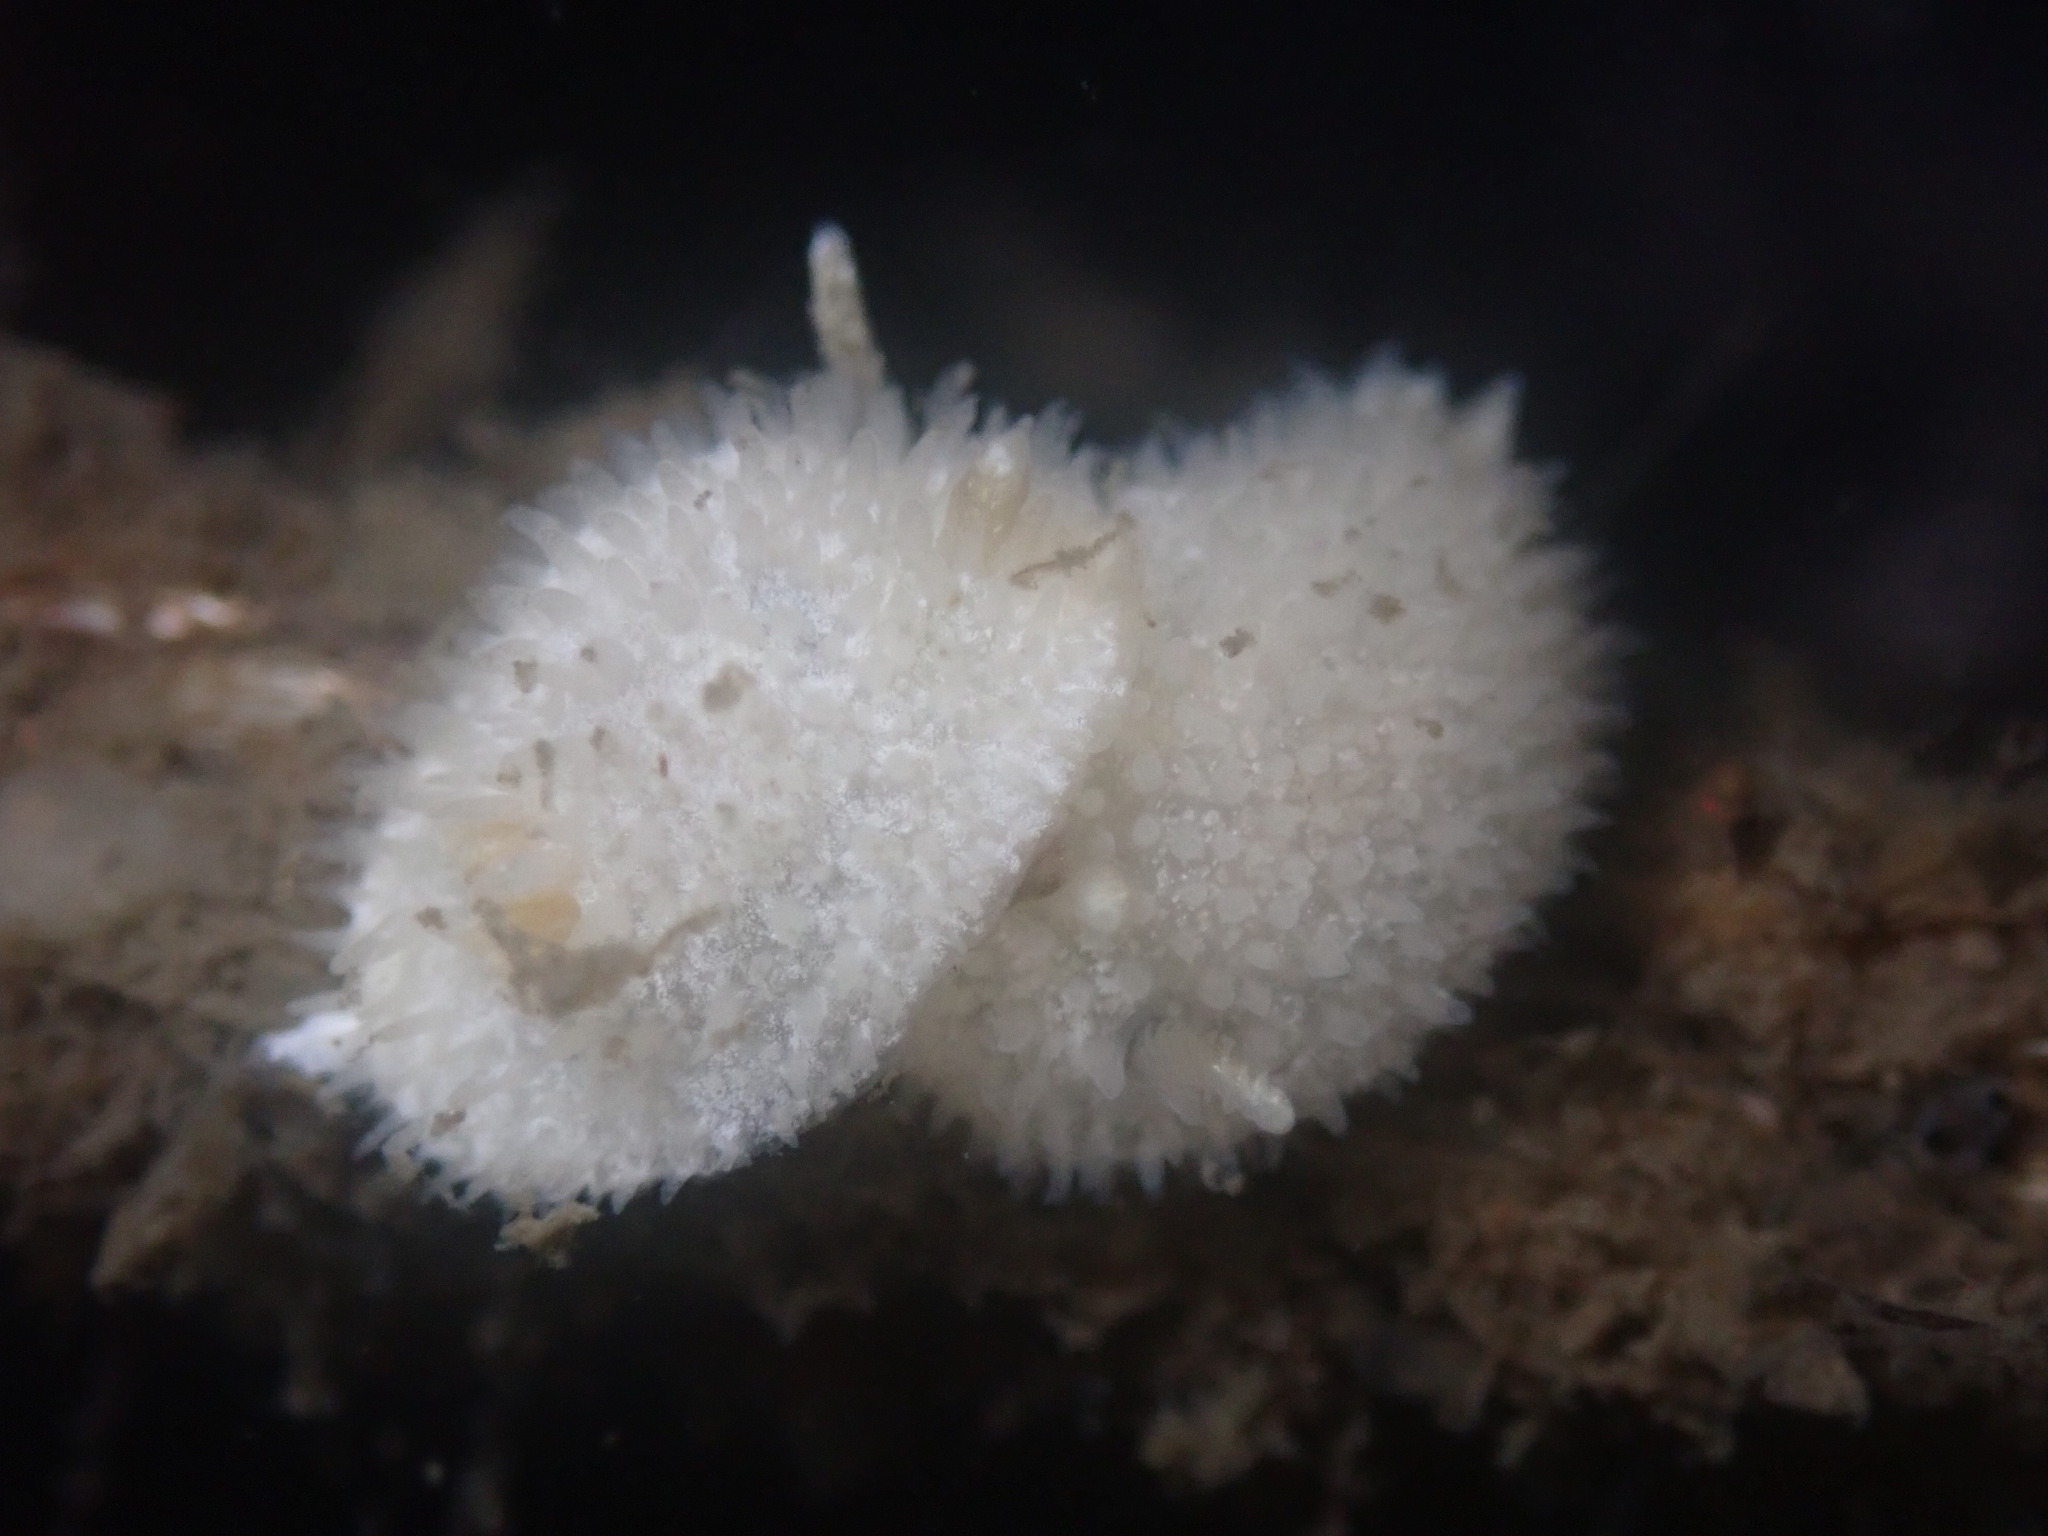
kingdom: Animalia
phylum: Mollusca
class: Gastropoda
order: Nudibranchia
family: Calycidorididae
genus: Diaphorodoris
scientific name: Diaphorodoris lirulatocauda
